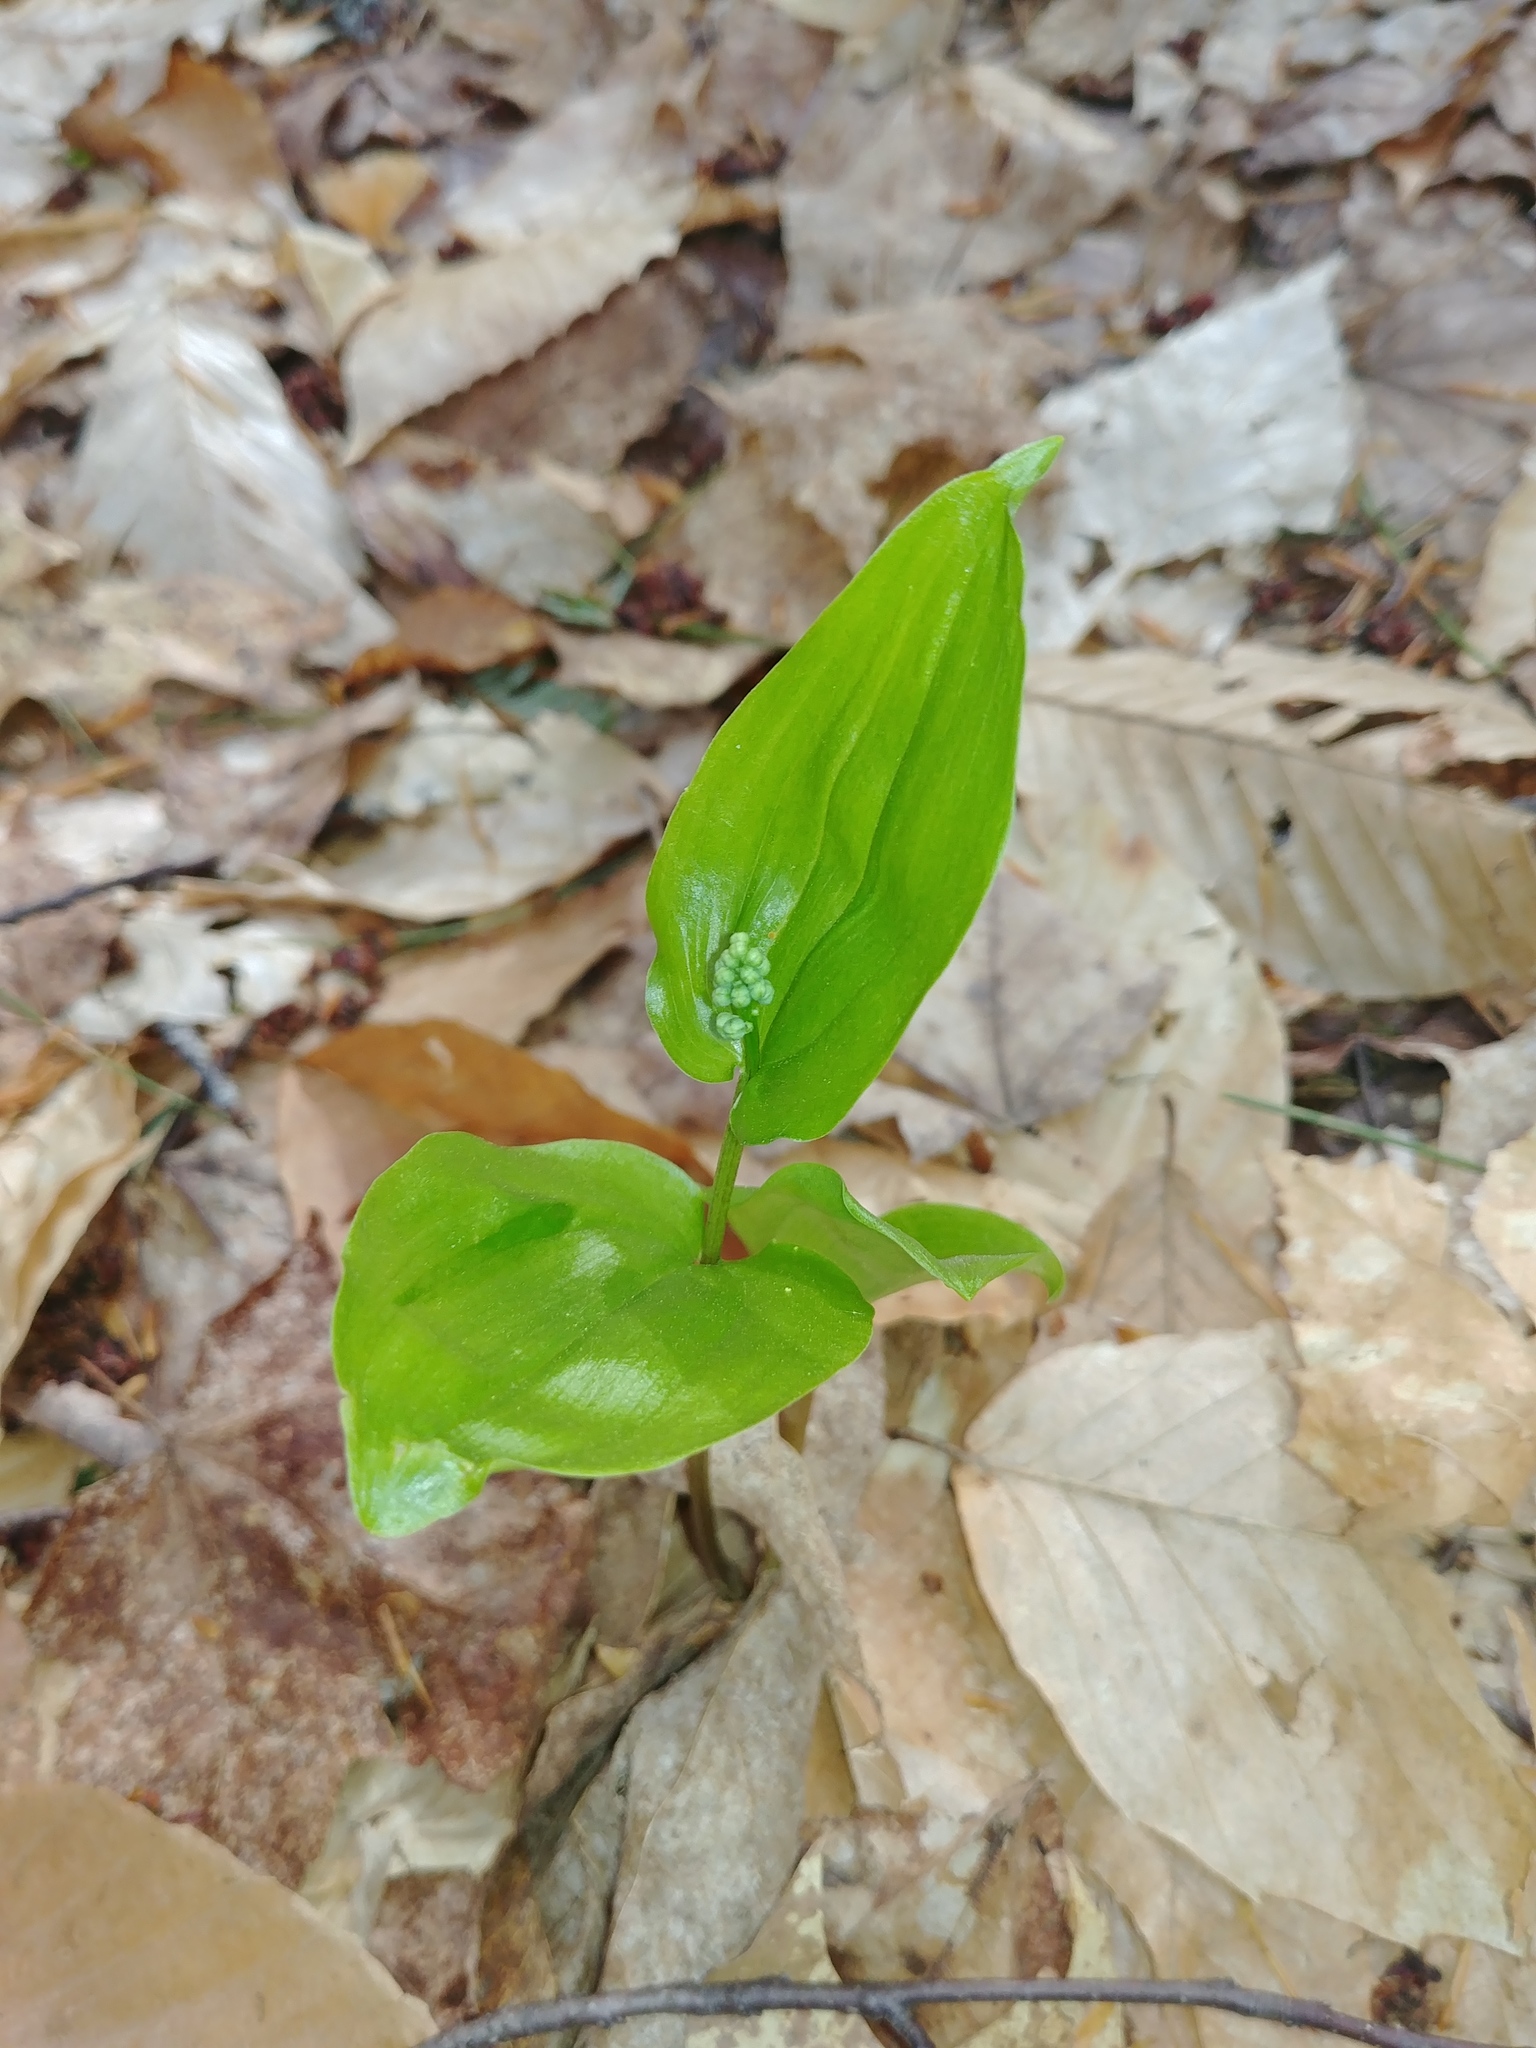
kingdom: Plantae
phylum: Tracheophyta
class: Liliopsida
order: Asparagales
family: Asparagaceae
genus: Maianthemum
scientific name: Maianthemum canadense
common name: False lily-of-the-valley
